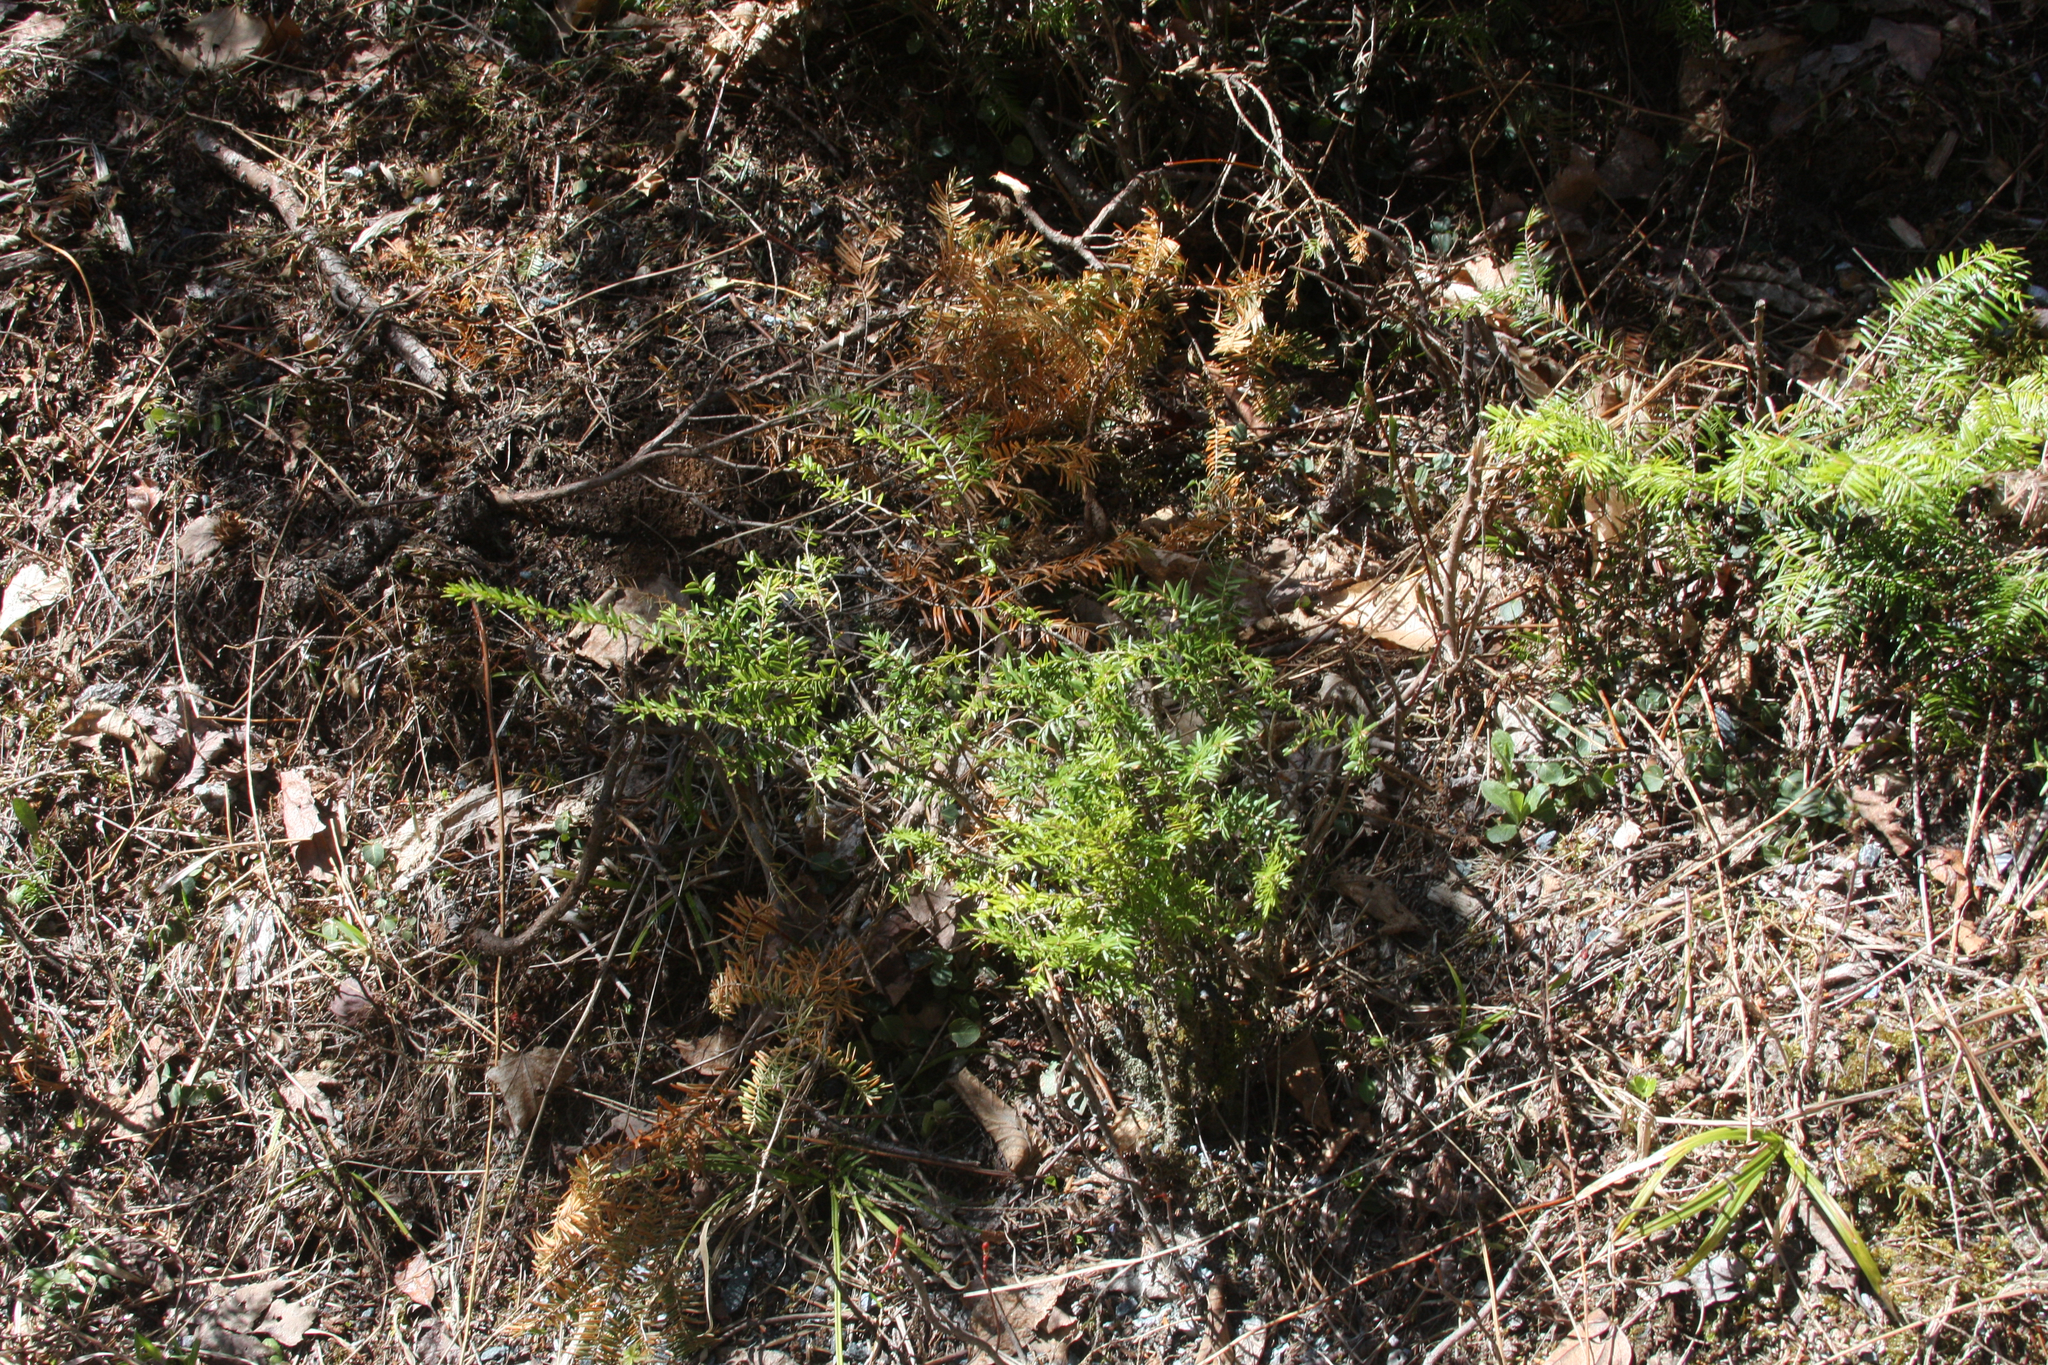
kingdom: Plantae
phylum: Tracheophyta
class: Pinopsida
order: Pinales
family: Pinaceae
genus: Tsuga
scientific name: Tsuga canadensis
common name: Eastern hemlock
